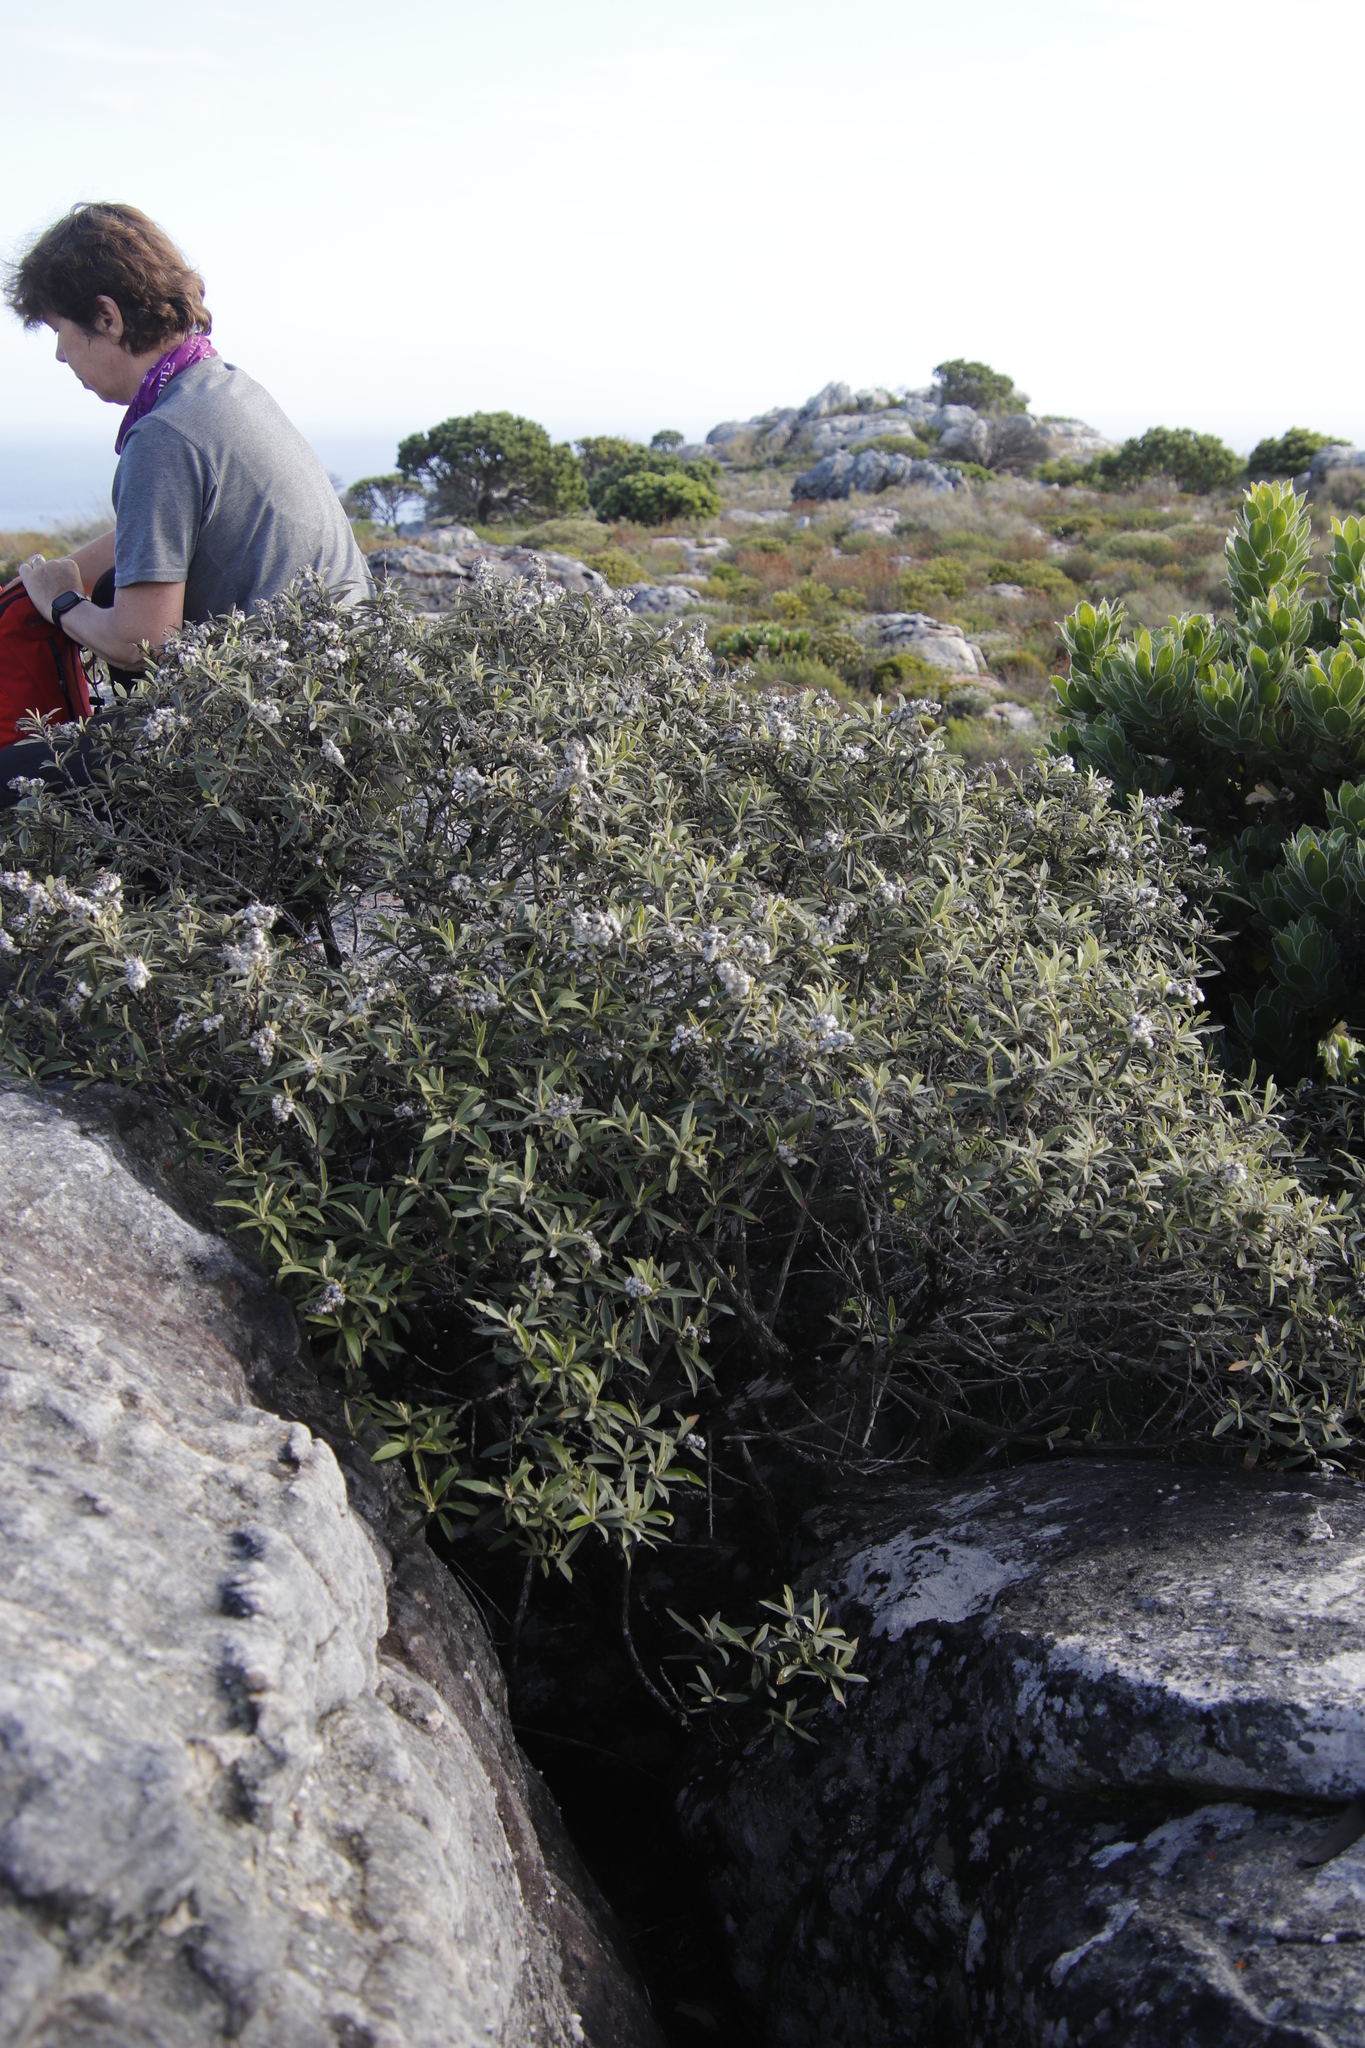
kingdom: Plantae
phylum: Tracheophyta
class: Magnoliopsida
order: Asterales
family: Asteraceae
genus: Tarchonanthus
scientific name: Tarchonanthus littoralis
